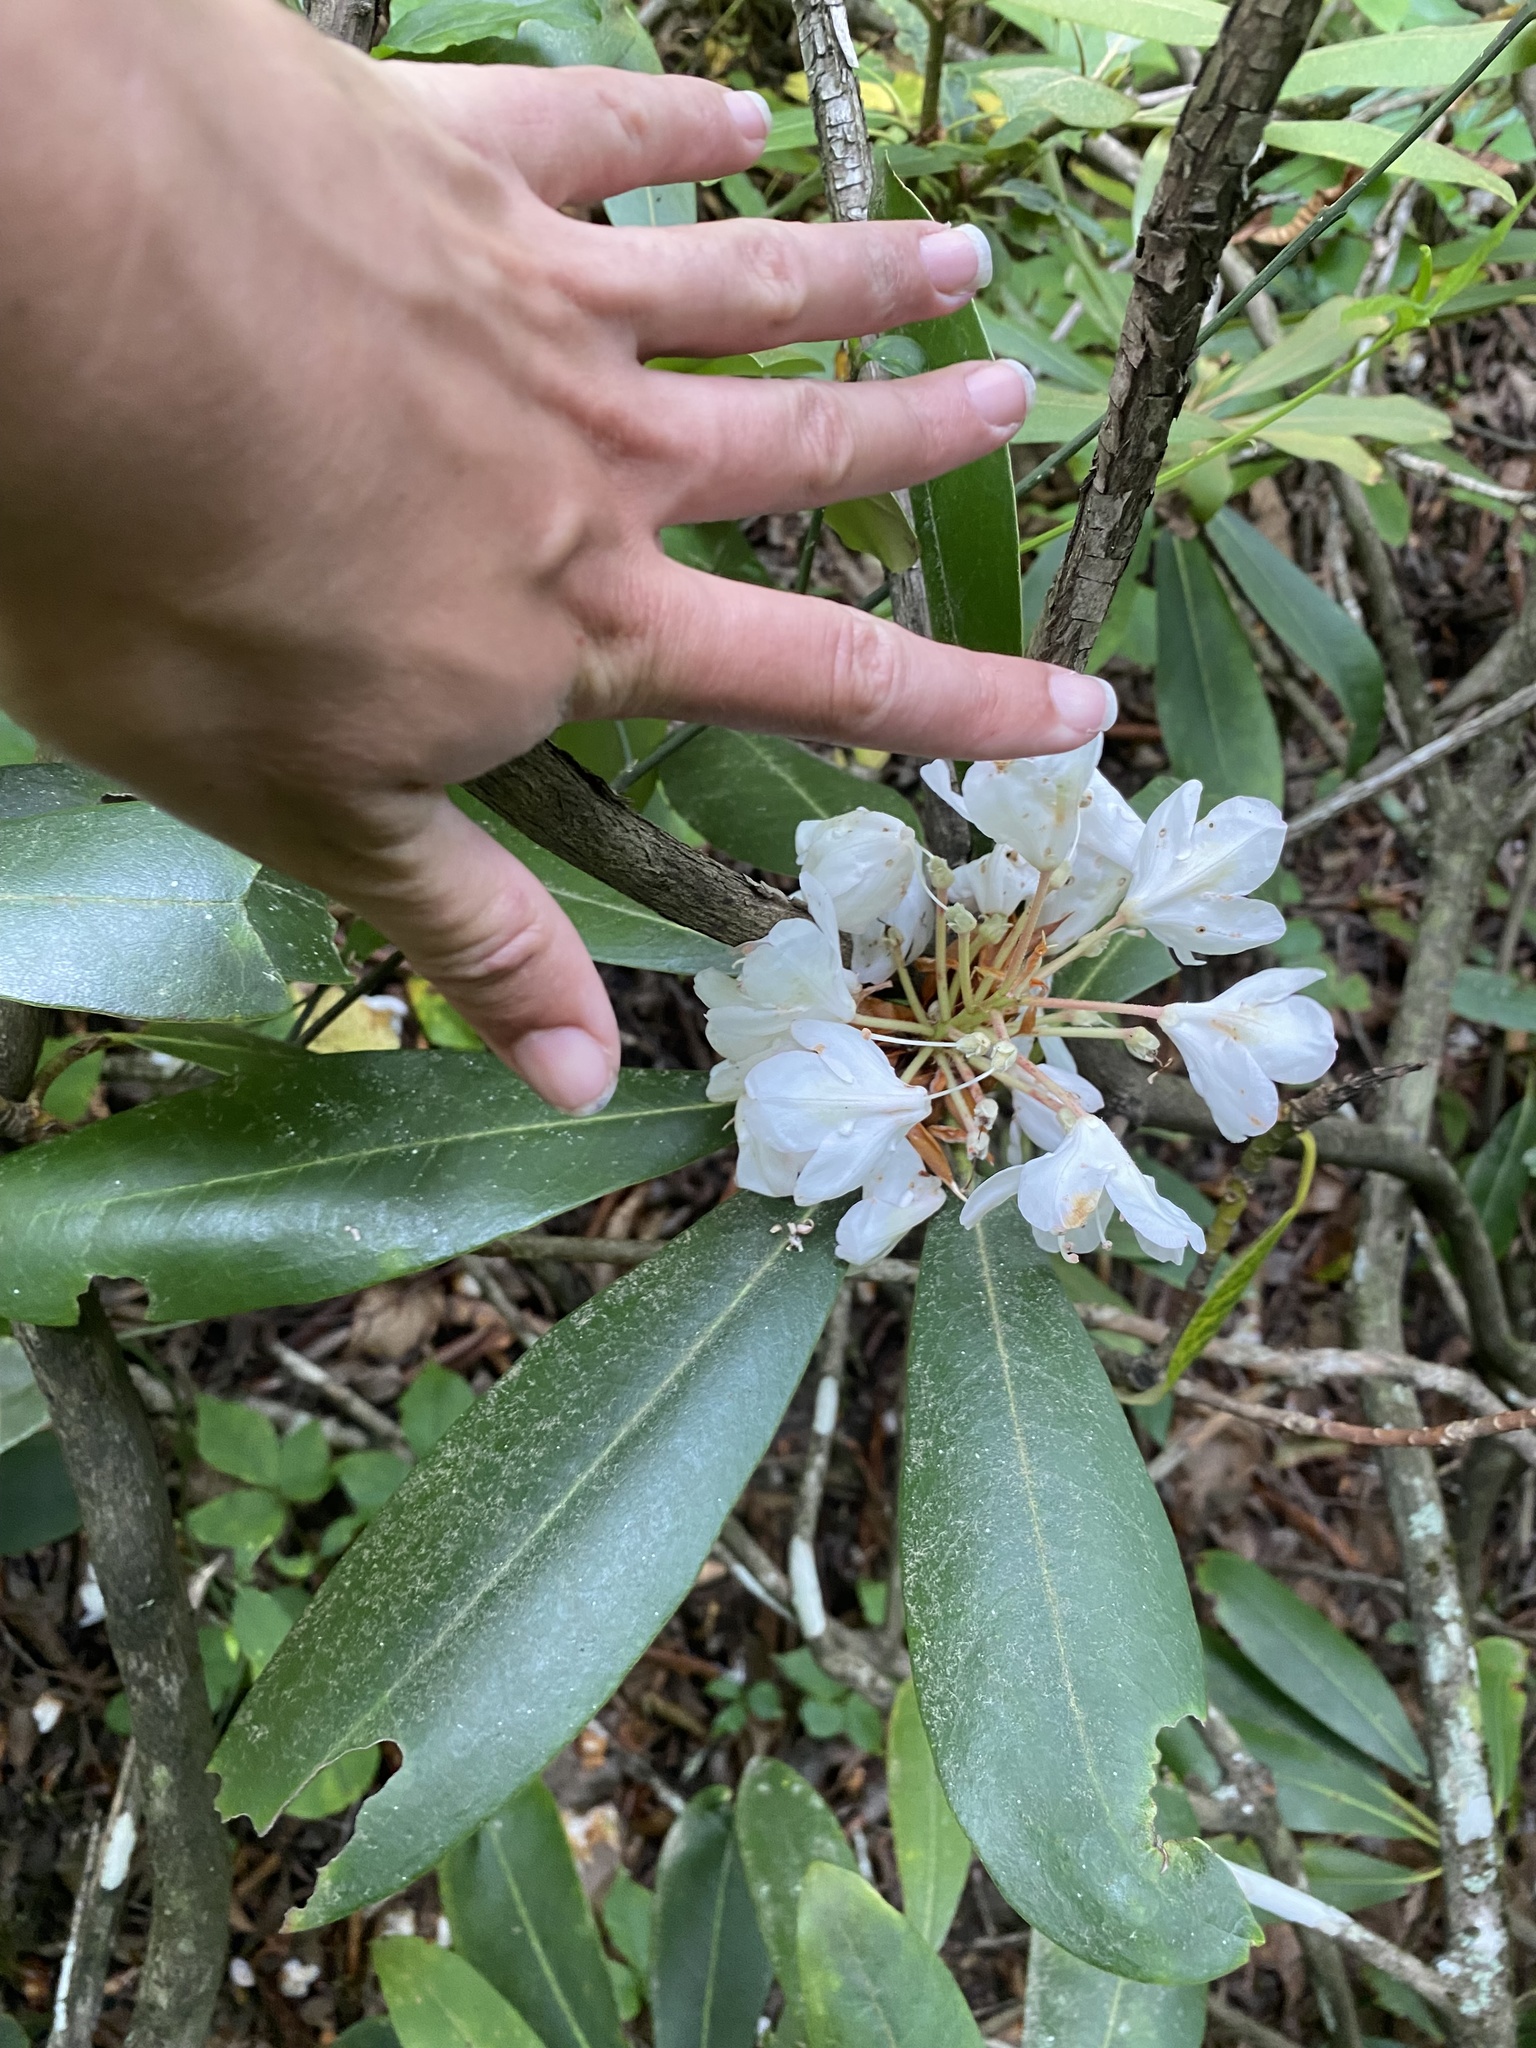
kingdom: Plantae
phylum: Tracheophyta
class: Magnoliopsida
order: Ericales
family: Ericaceae
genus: Rhododendron
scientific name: Rhododendron maximum
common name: Great rhododendron
